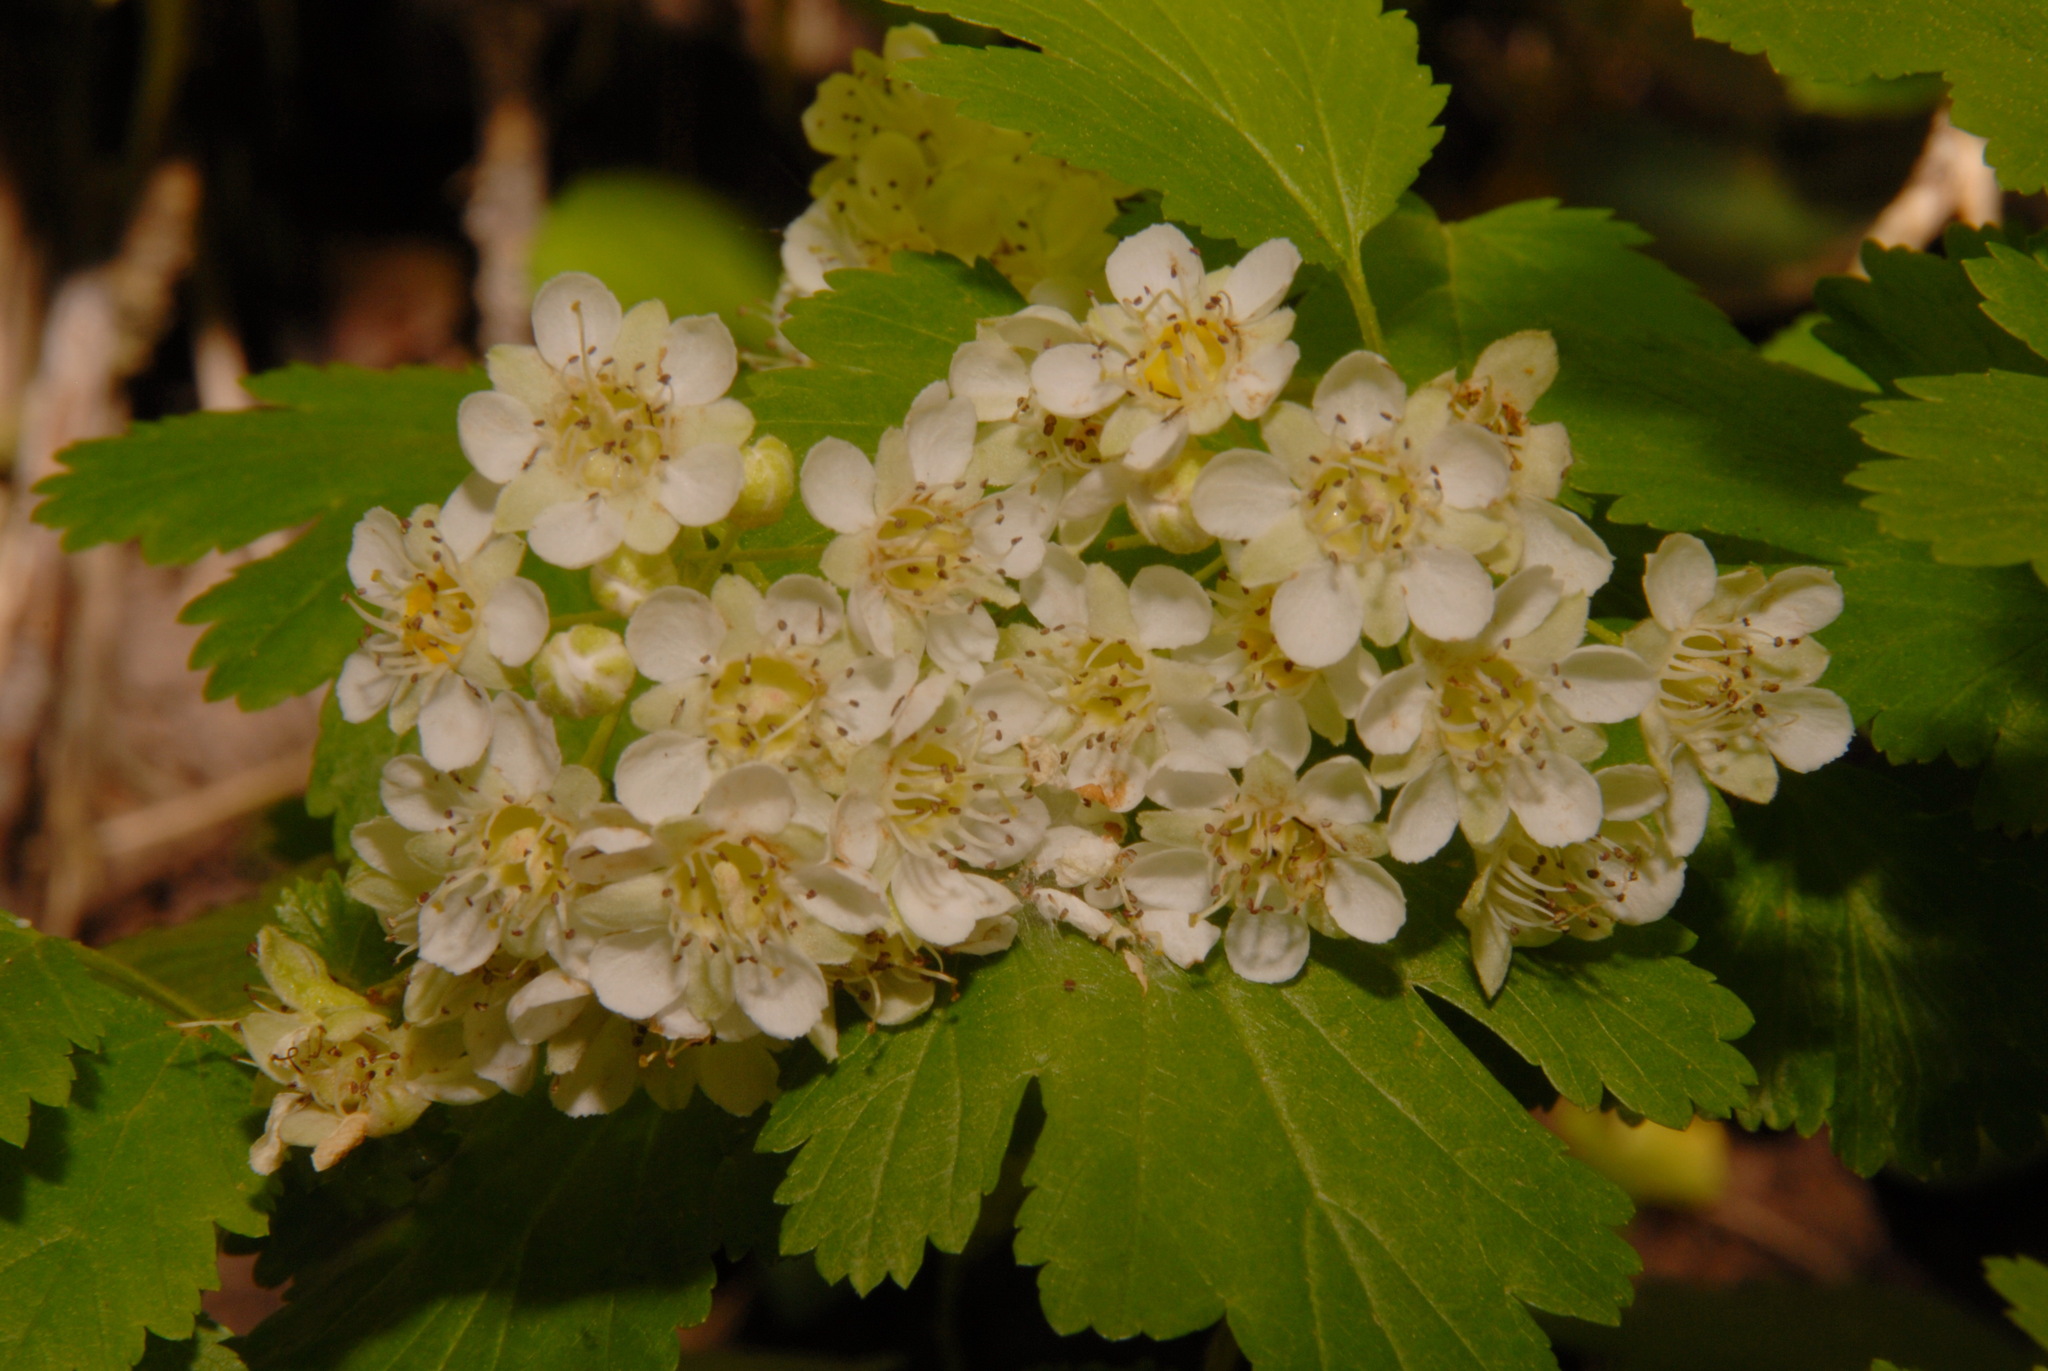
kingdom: Plantae
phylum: Tracheophyta
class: Magnoliopsida
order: Rosales
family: Rosaceae
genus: Physocarpus
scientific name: Physocarpus monogynus
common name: Mountain ninebark
